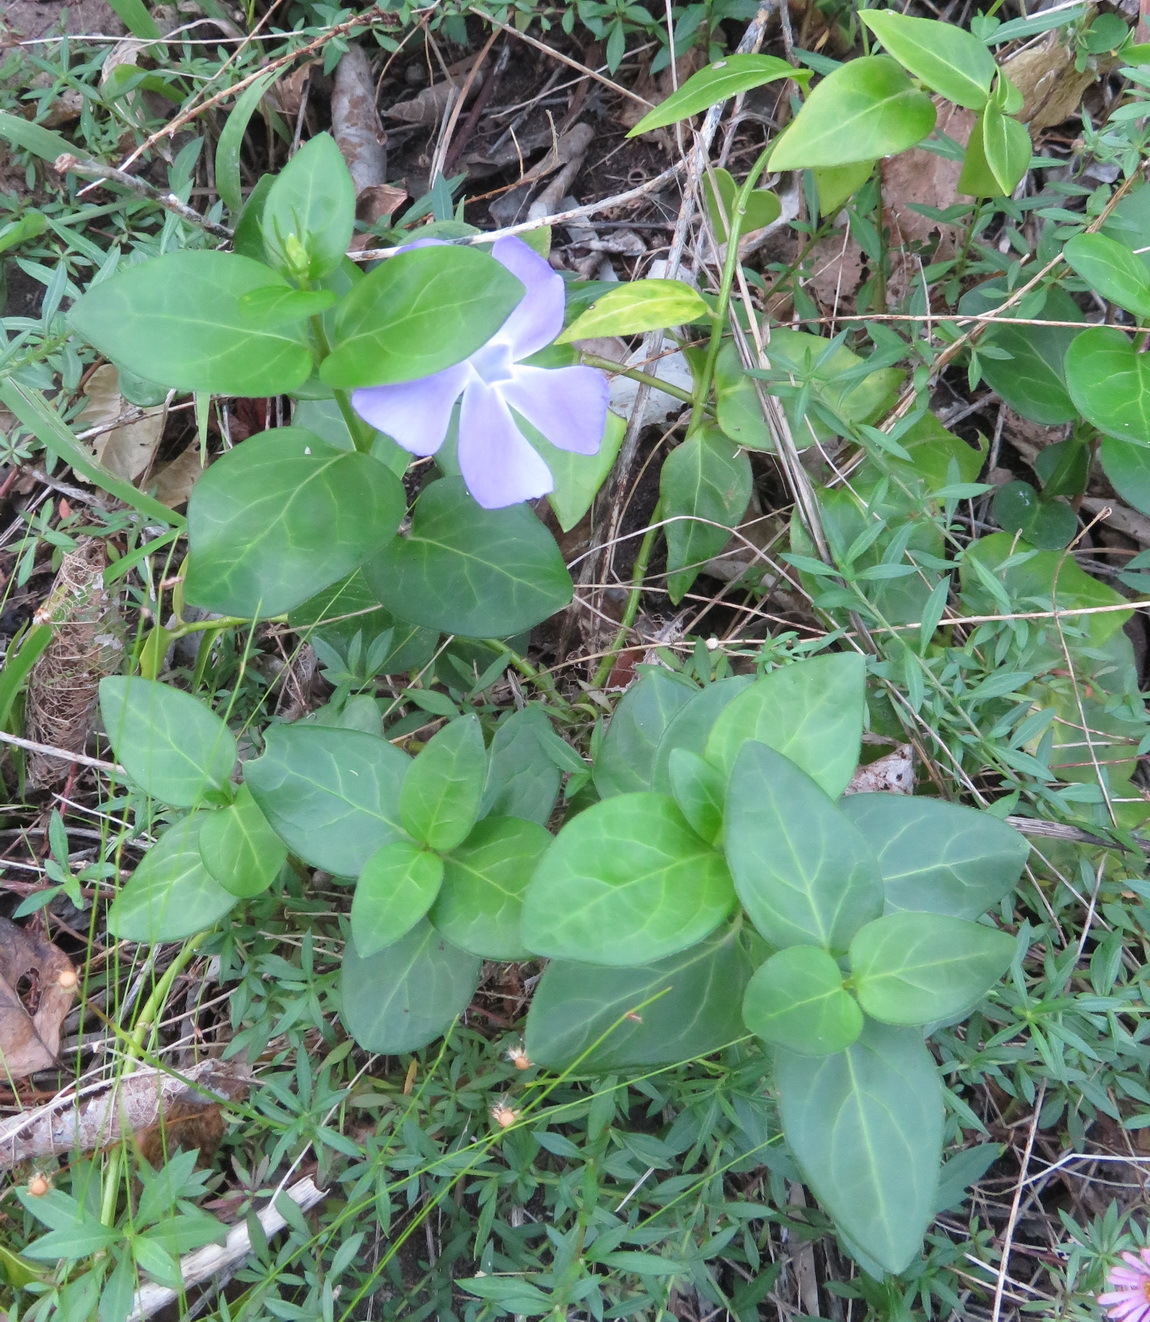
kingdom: Plantae
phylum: Tracheophyta
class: Magnoliopsida
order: Gentianales
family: Apocynaceae
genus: Vinca
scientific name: Vinca major
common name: Greater periwinkle
